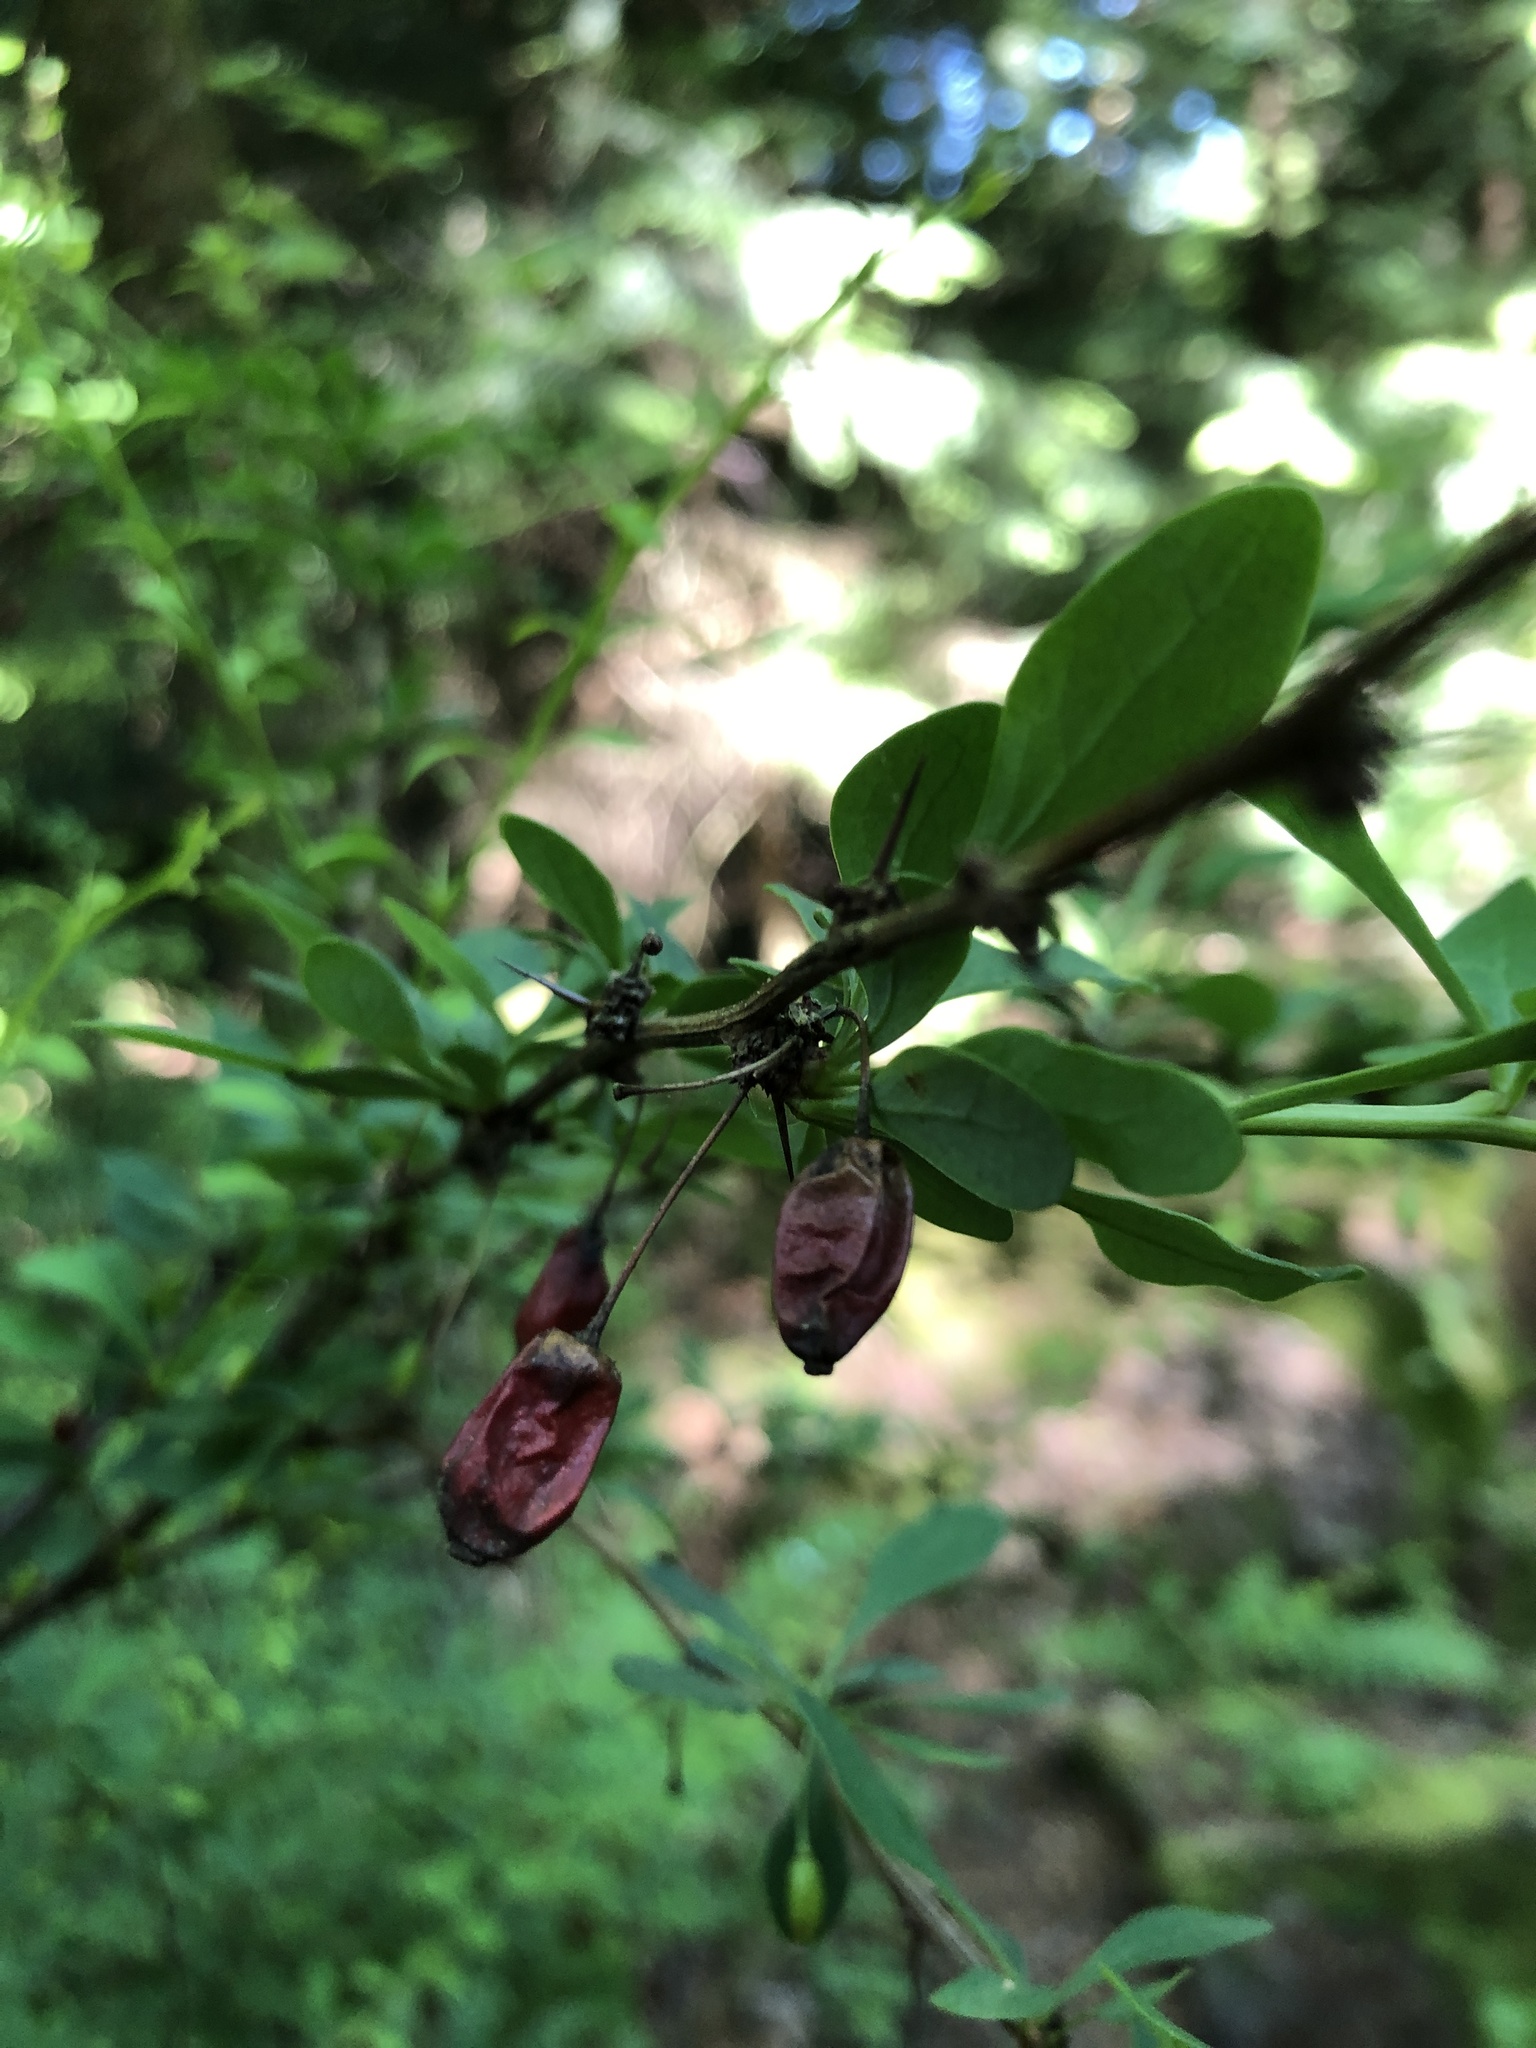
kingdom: Plantae
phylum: Tracheophyta
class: Magnoliopsida
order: Ranunculales
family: Berberidaceae
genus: Berberis
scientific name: Berberis thunbergii
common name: Japanese barberry
